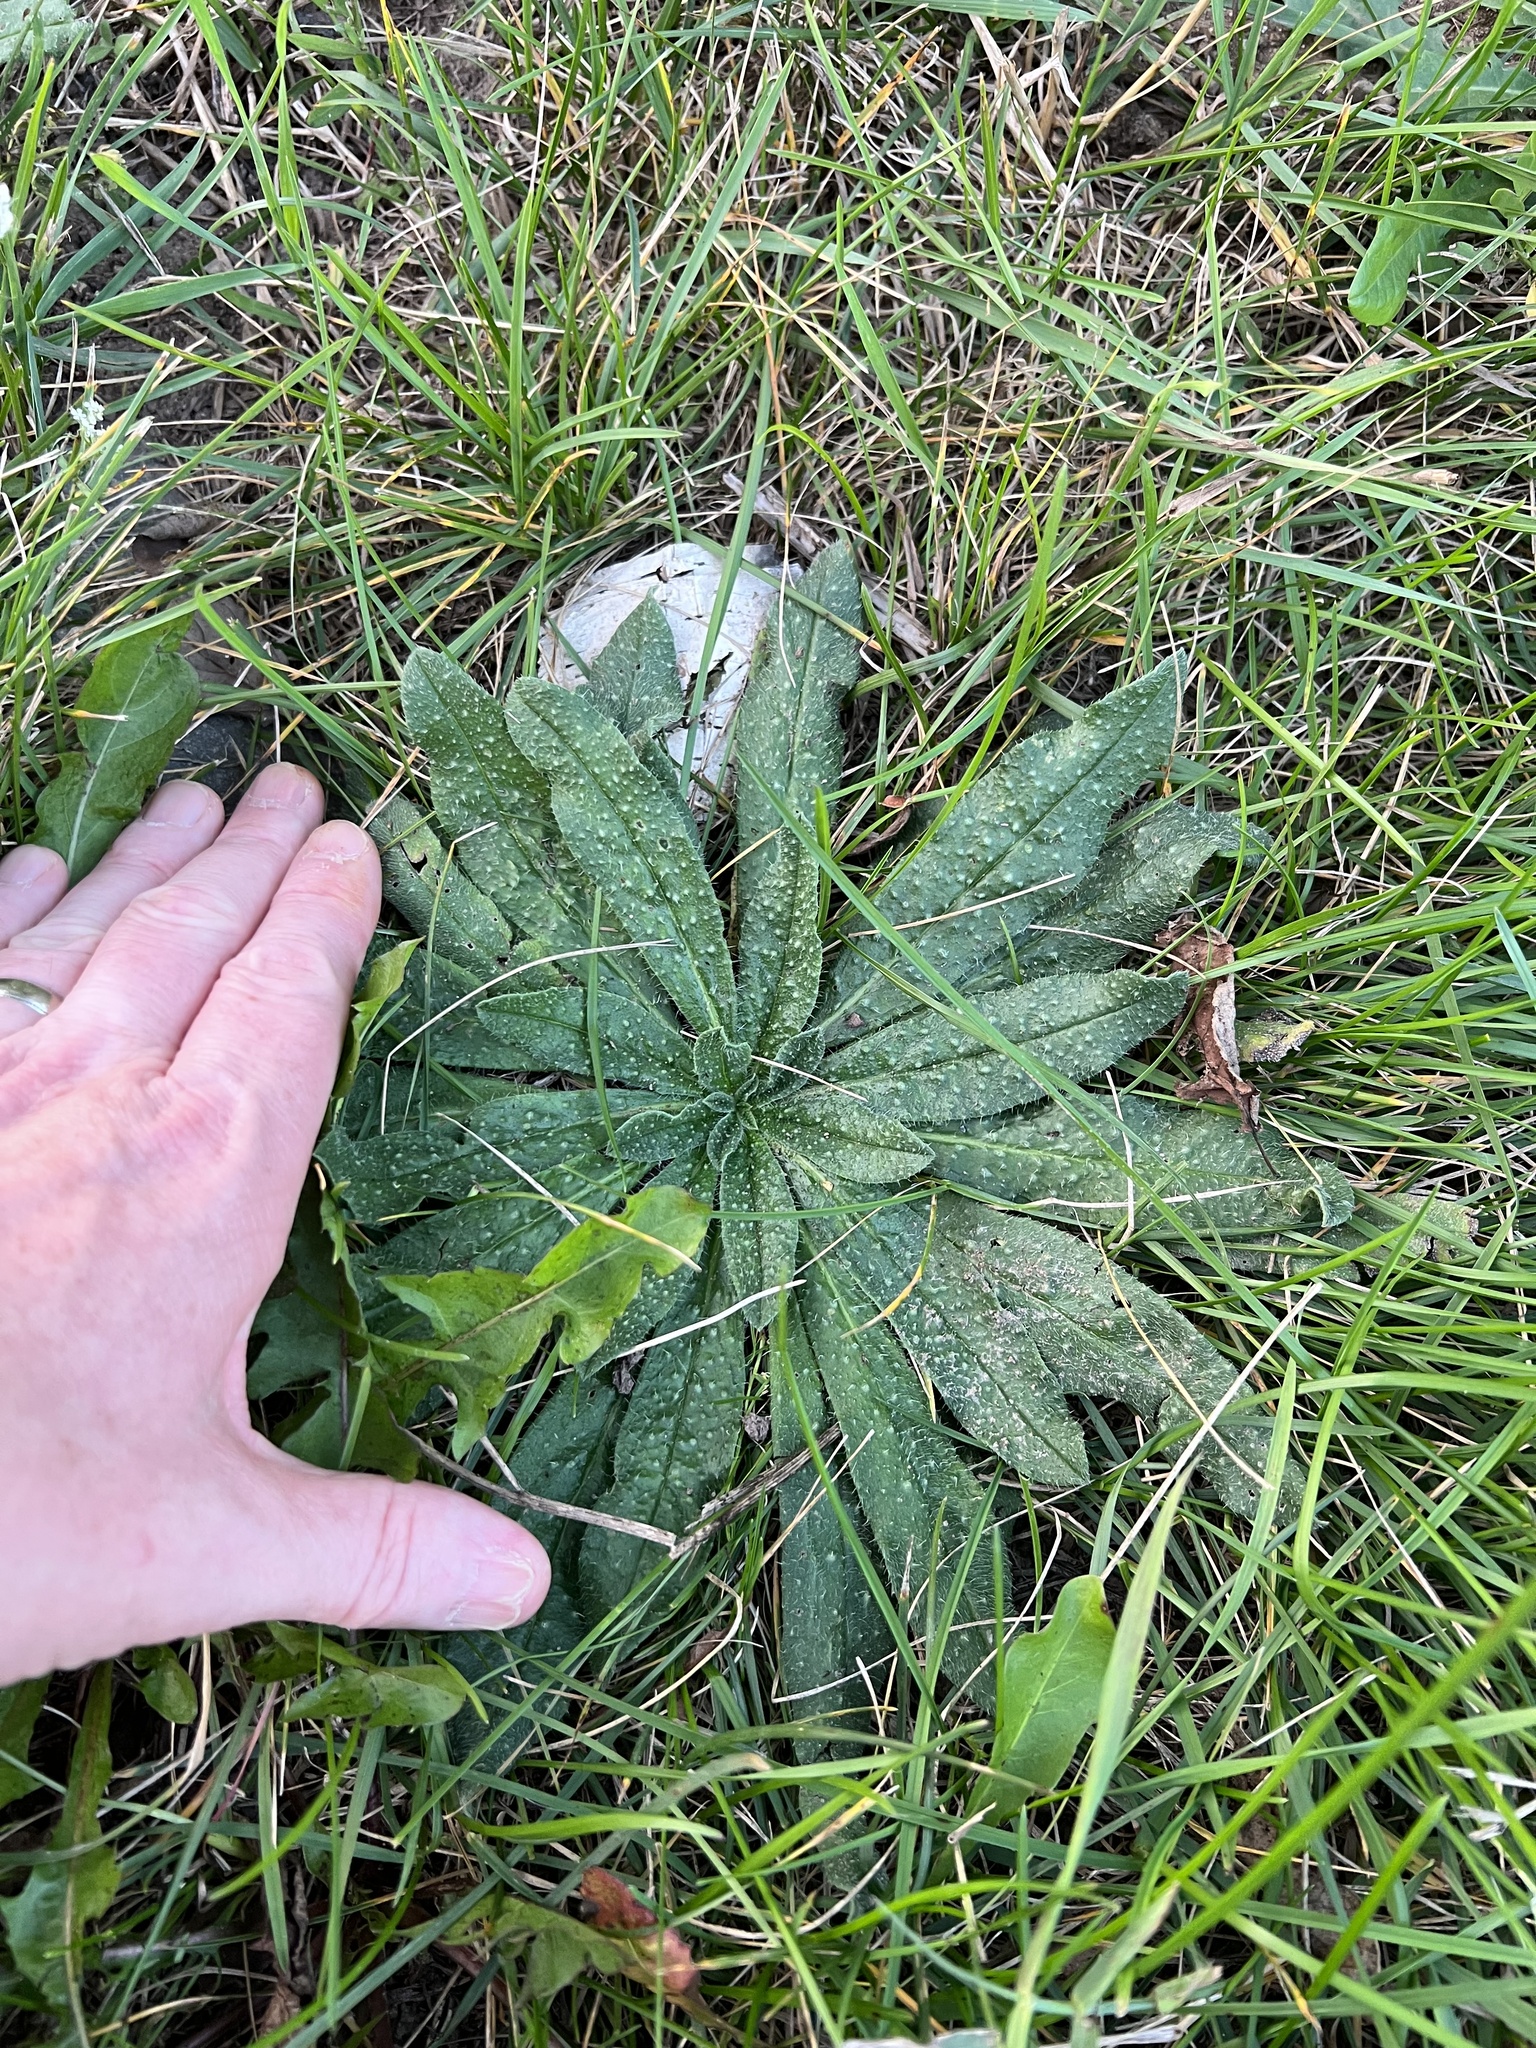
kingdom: Plantae
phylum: Tracheophyta
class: Magnoliopsida
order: Boraginales
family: Boraginaceae
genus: Echium
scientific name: Echium vulgare
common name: Common viper's bugloss
